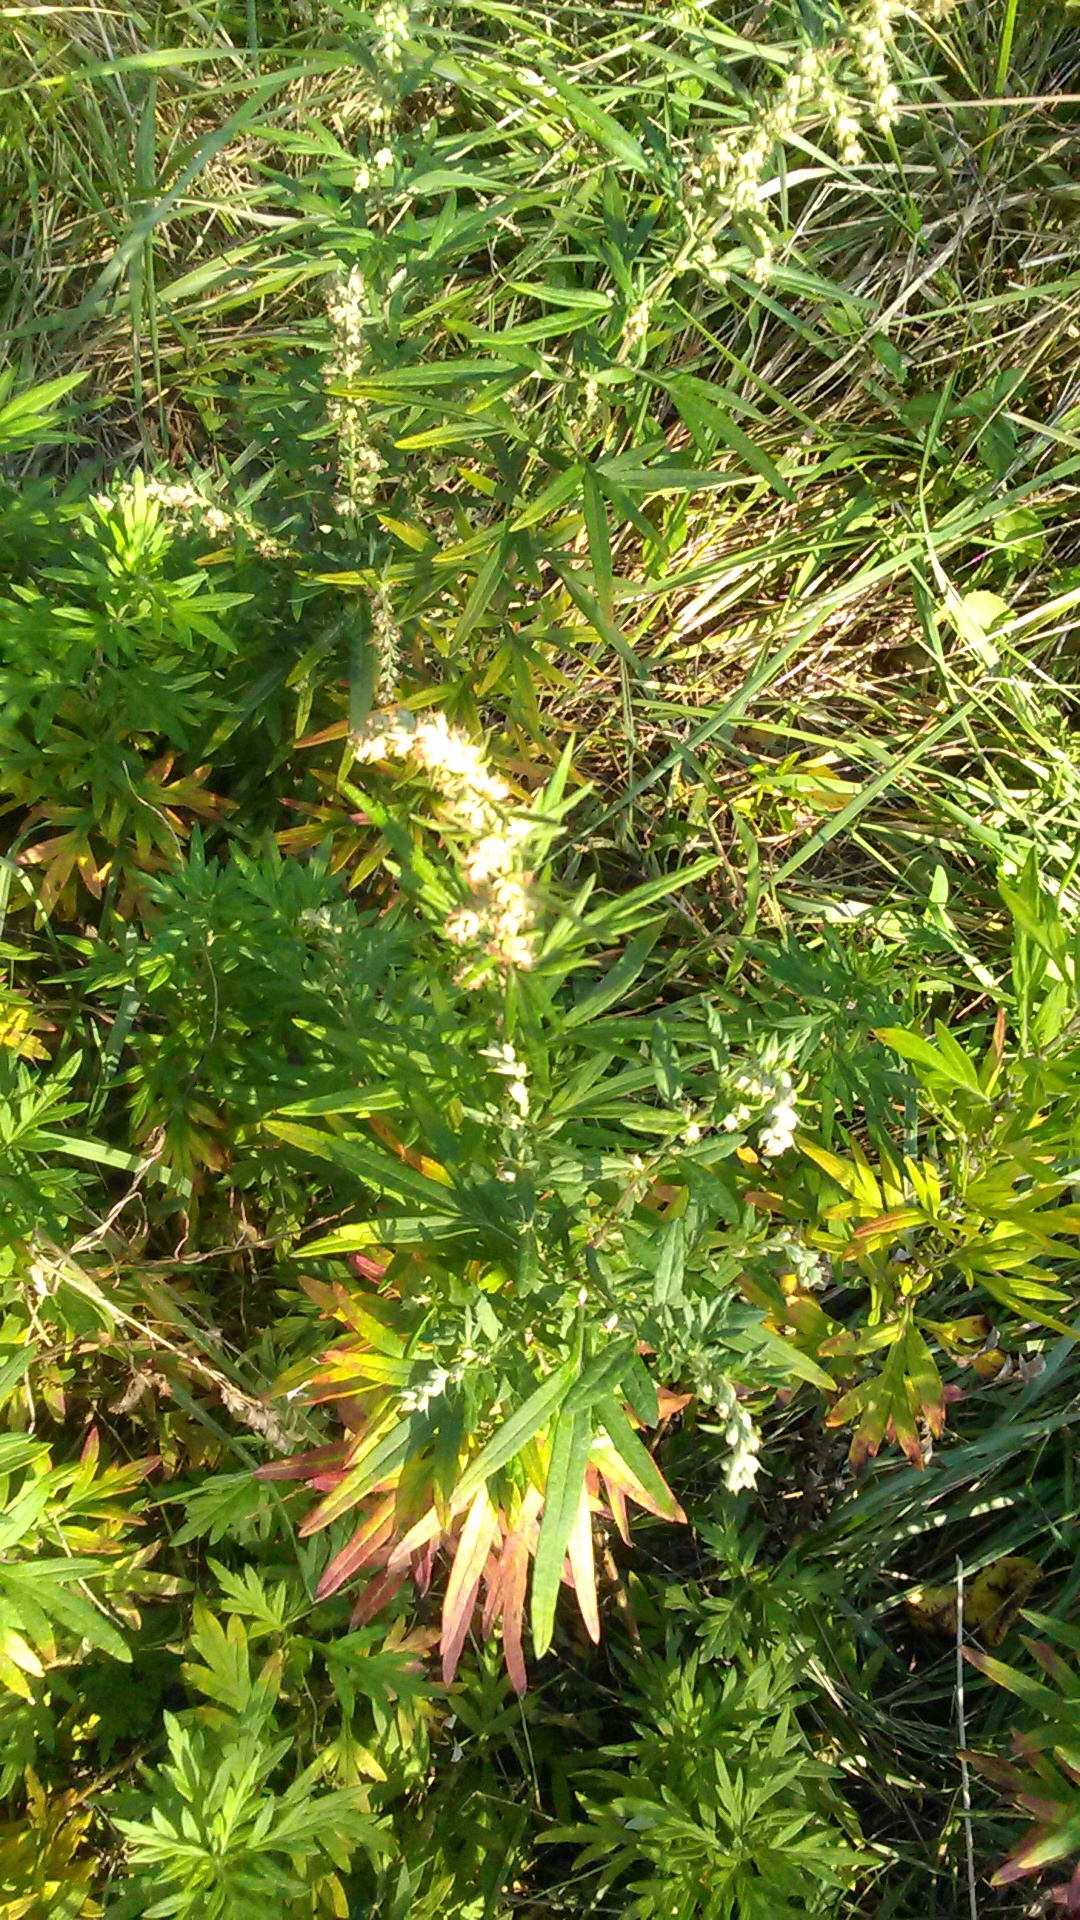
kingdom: Plantae
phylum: Tracheophyta
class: Magnoliopsida
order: Asterales
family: Asteraceae
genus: Artemisia
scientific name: Artemisia verlotiorum
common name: Chinese mugwort
